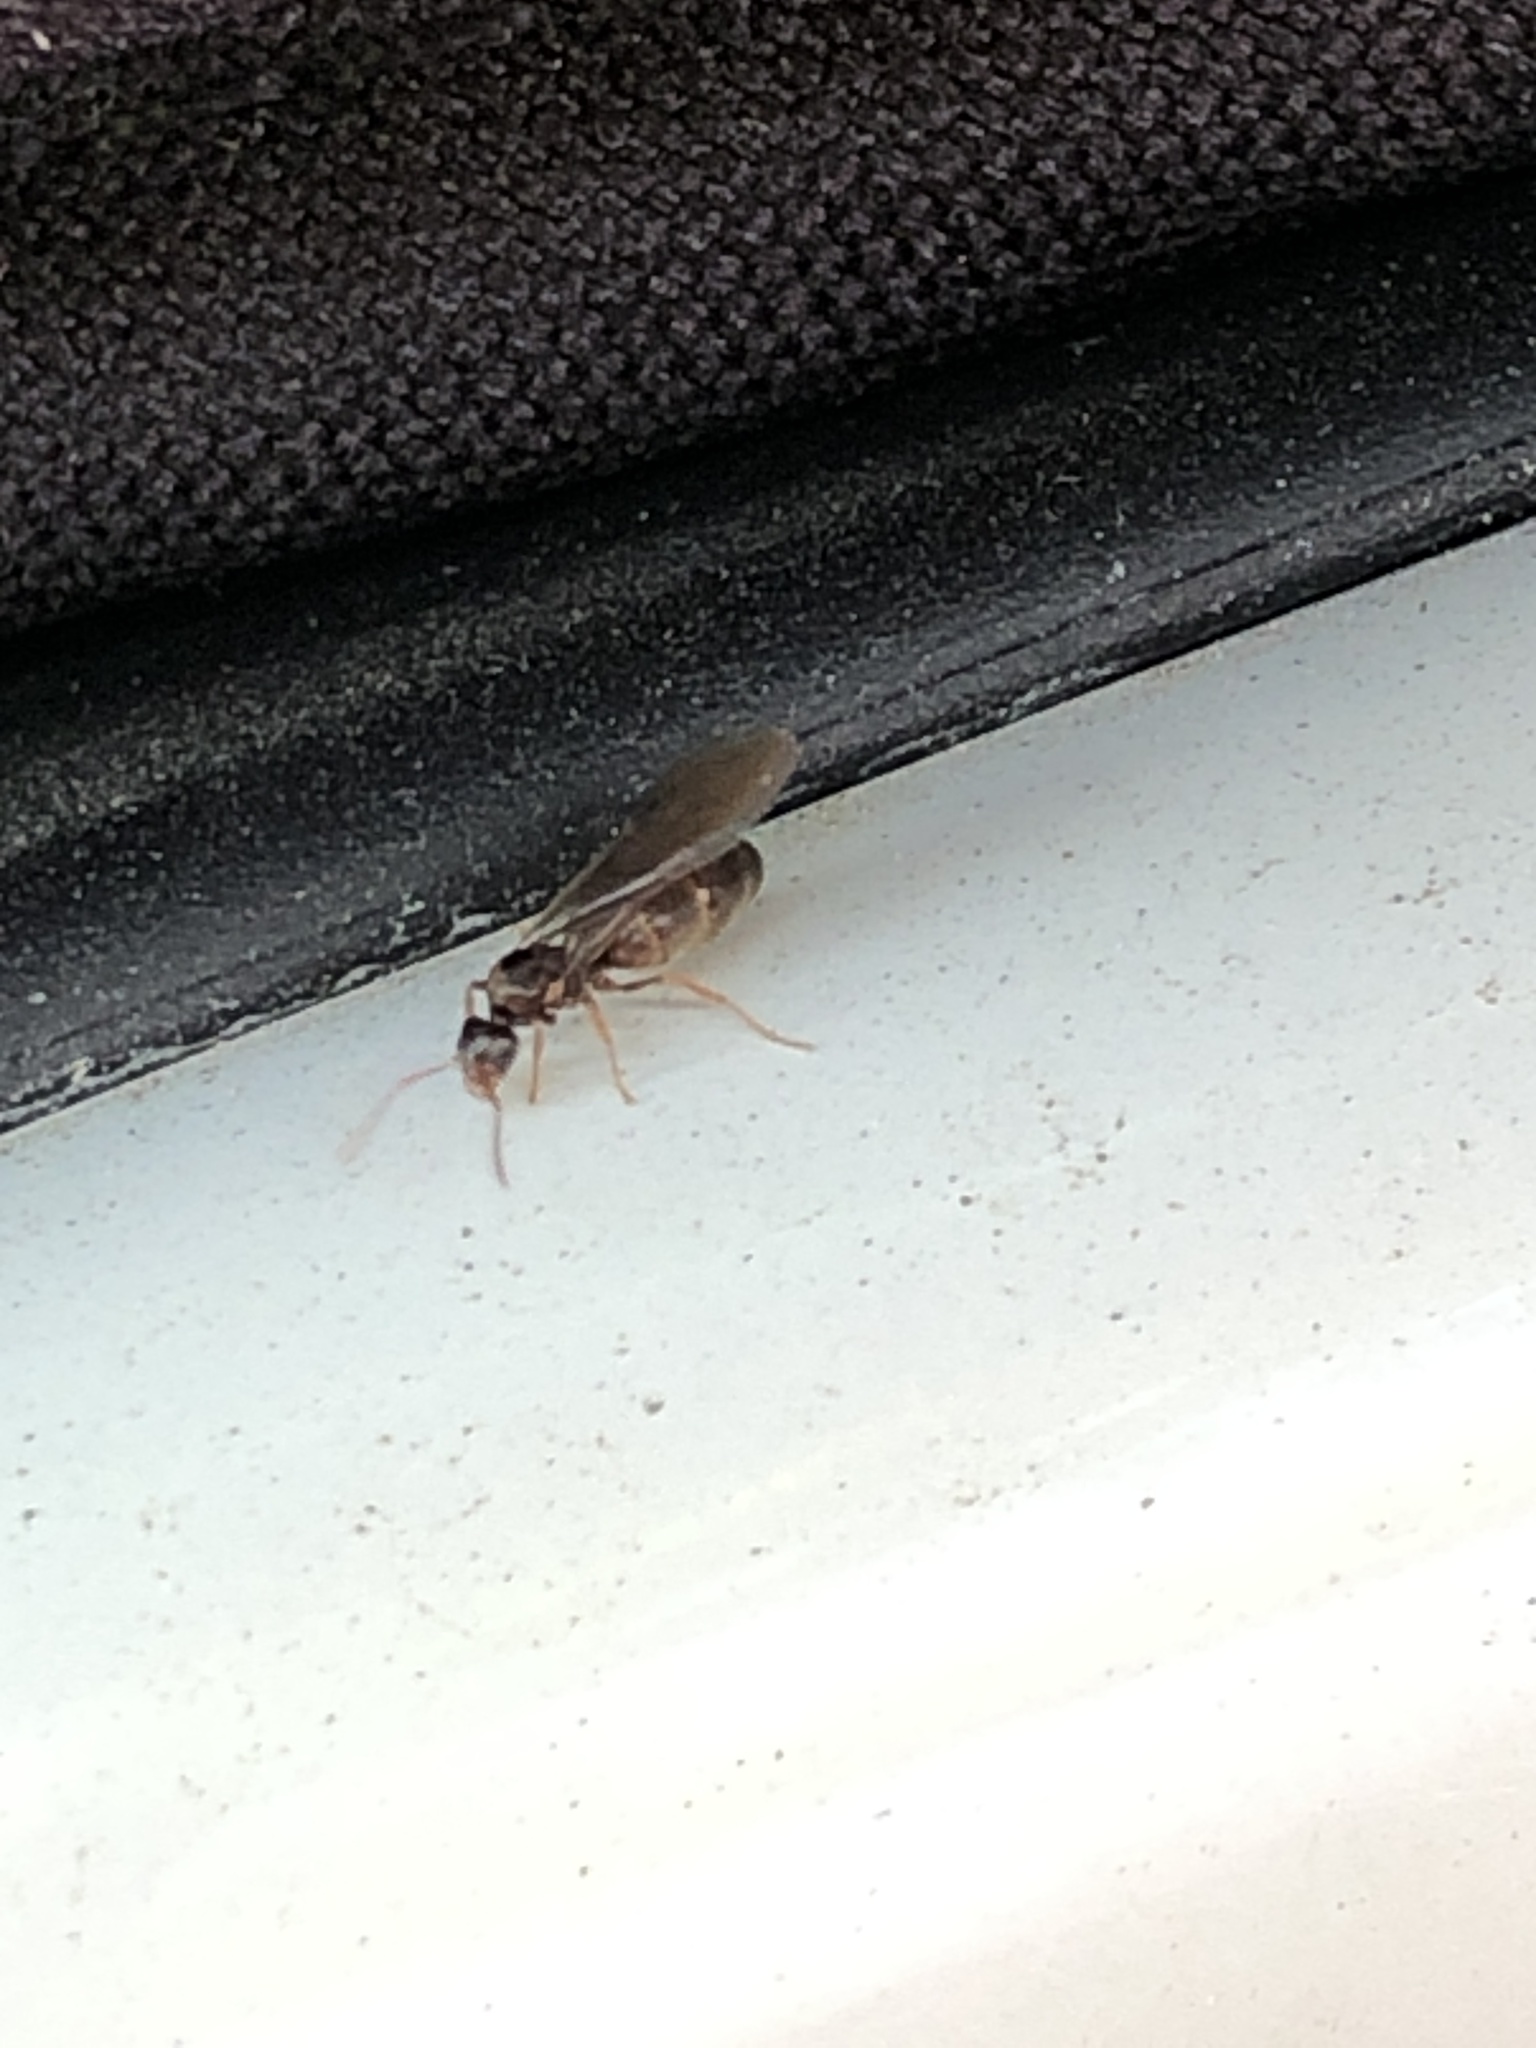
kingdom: Animalia
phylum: Arthropoda
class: Insecta
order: Hymenoptera
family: Formicidae
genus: Paratrechina
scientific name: Paratrechina flavipes
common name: Eastern asian formicine ant
